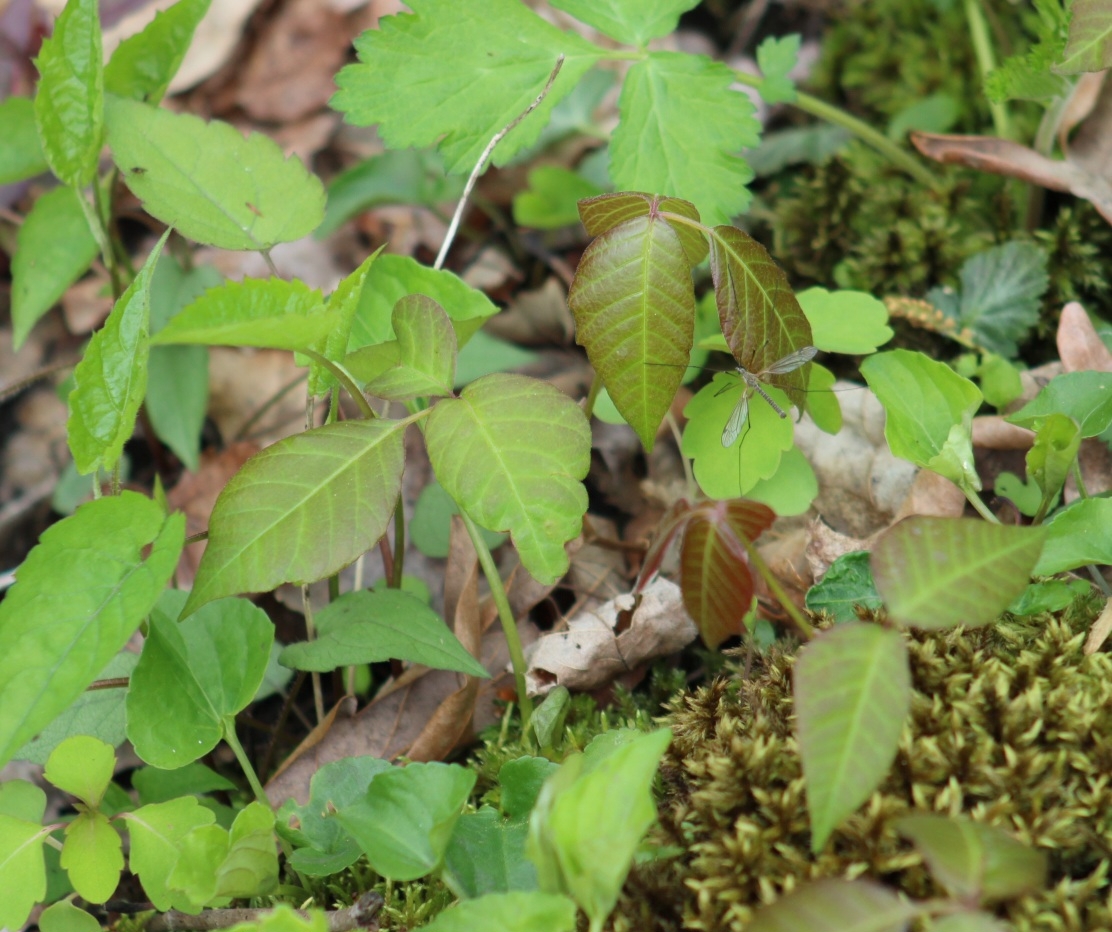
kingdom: Plantae
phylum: Tracheophyta
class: Magnoliopsida
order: Sapindales
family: Anacardiaceae
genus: Toxicodendron
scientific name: Toxicodendron radicans
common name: Poison ivy
